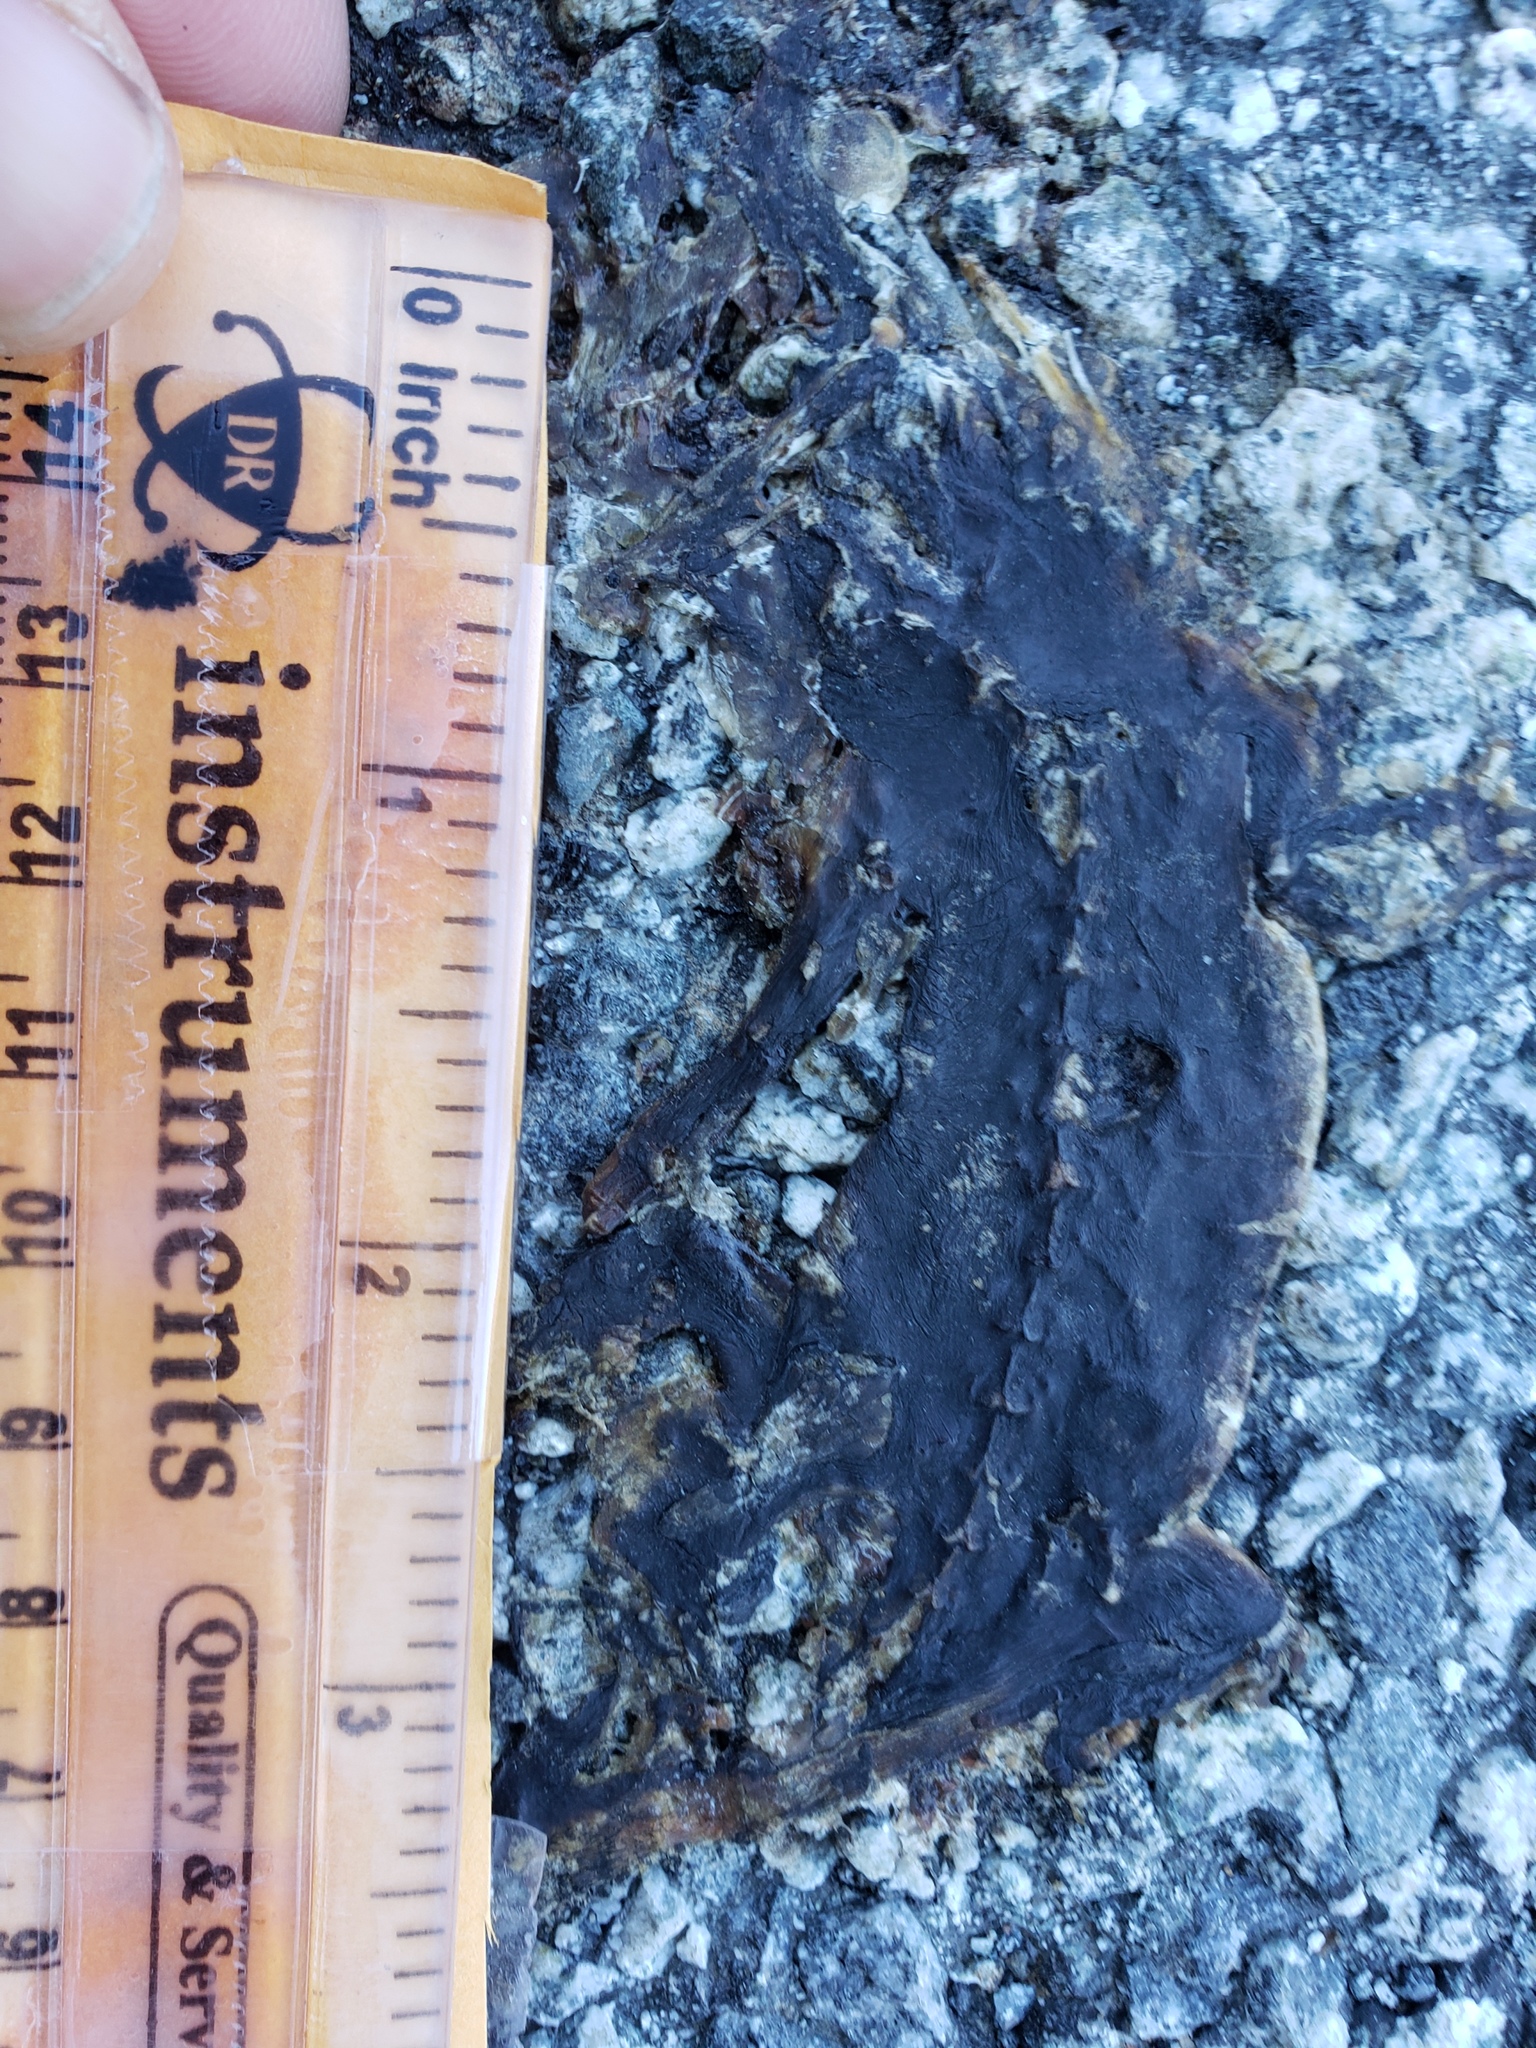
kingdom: Animalia
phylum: Chordata
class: Amphibia
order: Caudata
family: Salamandridae
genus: Taricha
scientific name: Taricha
